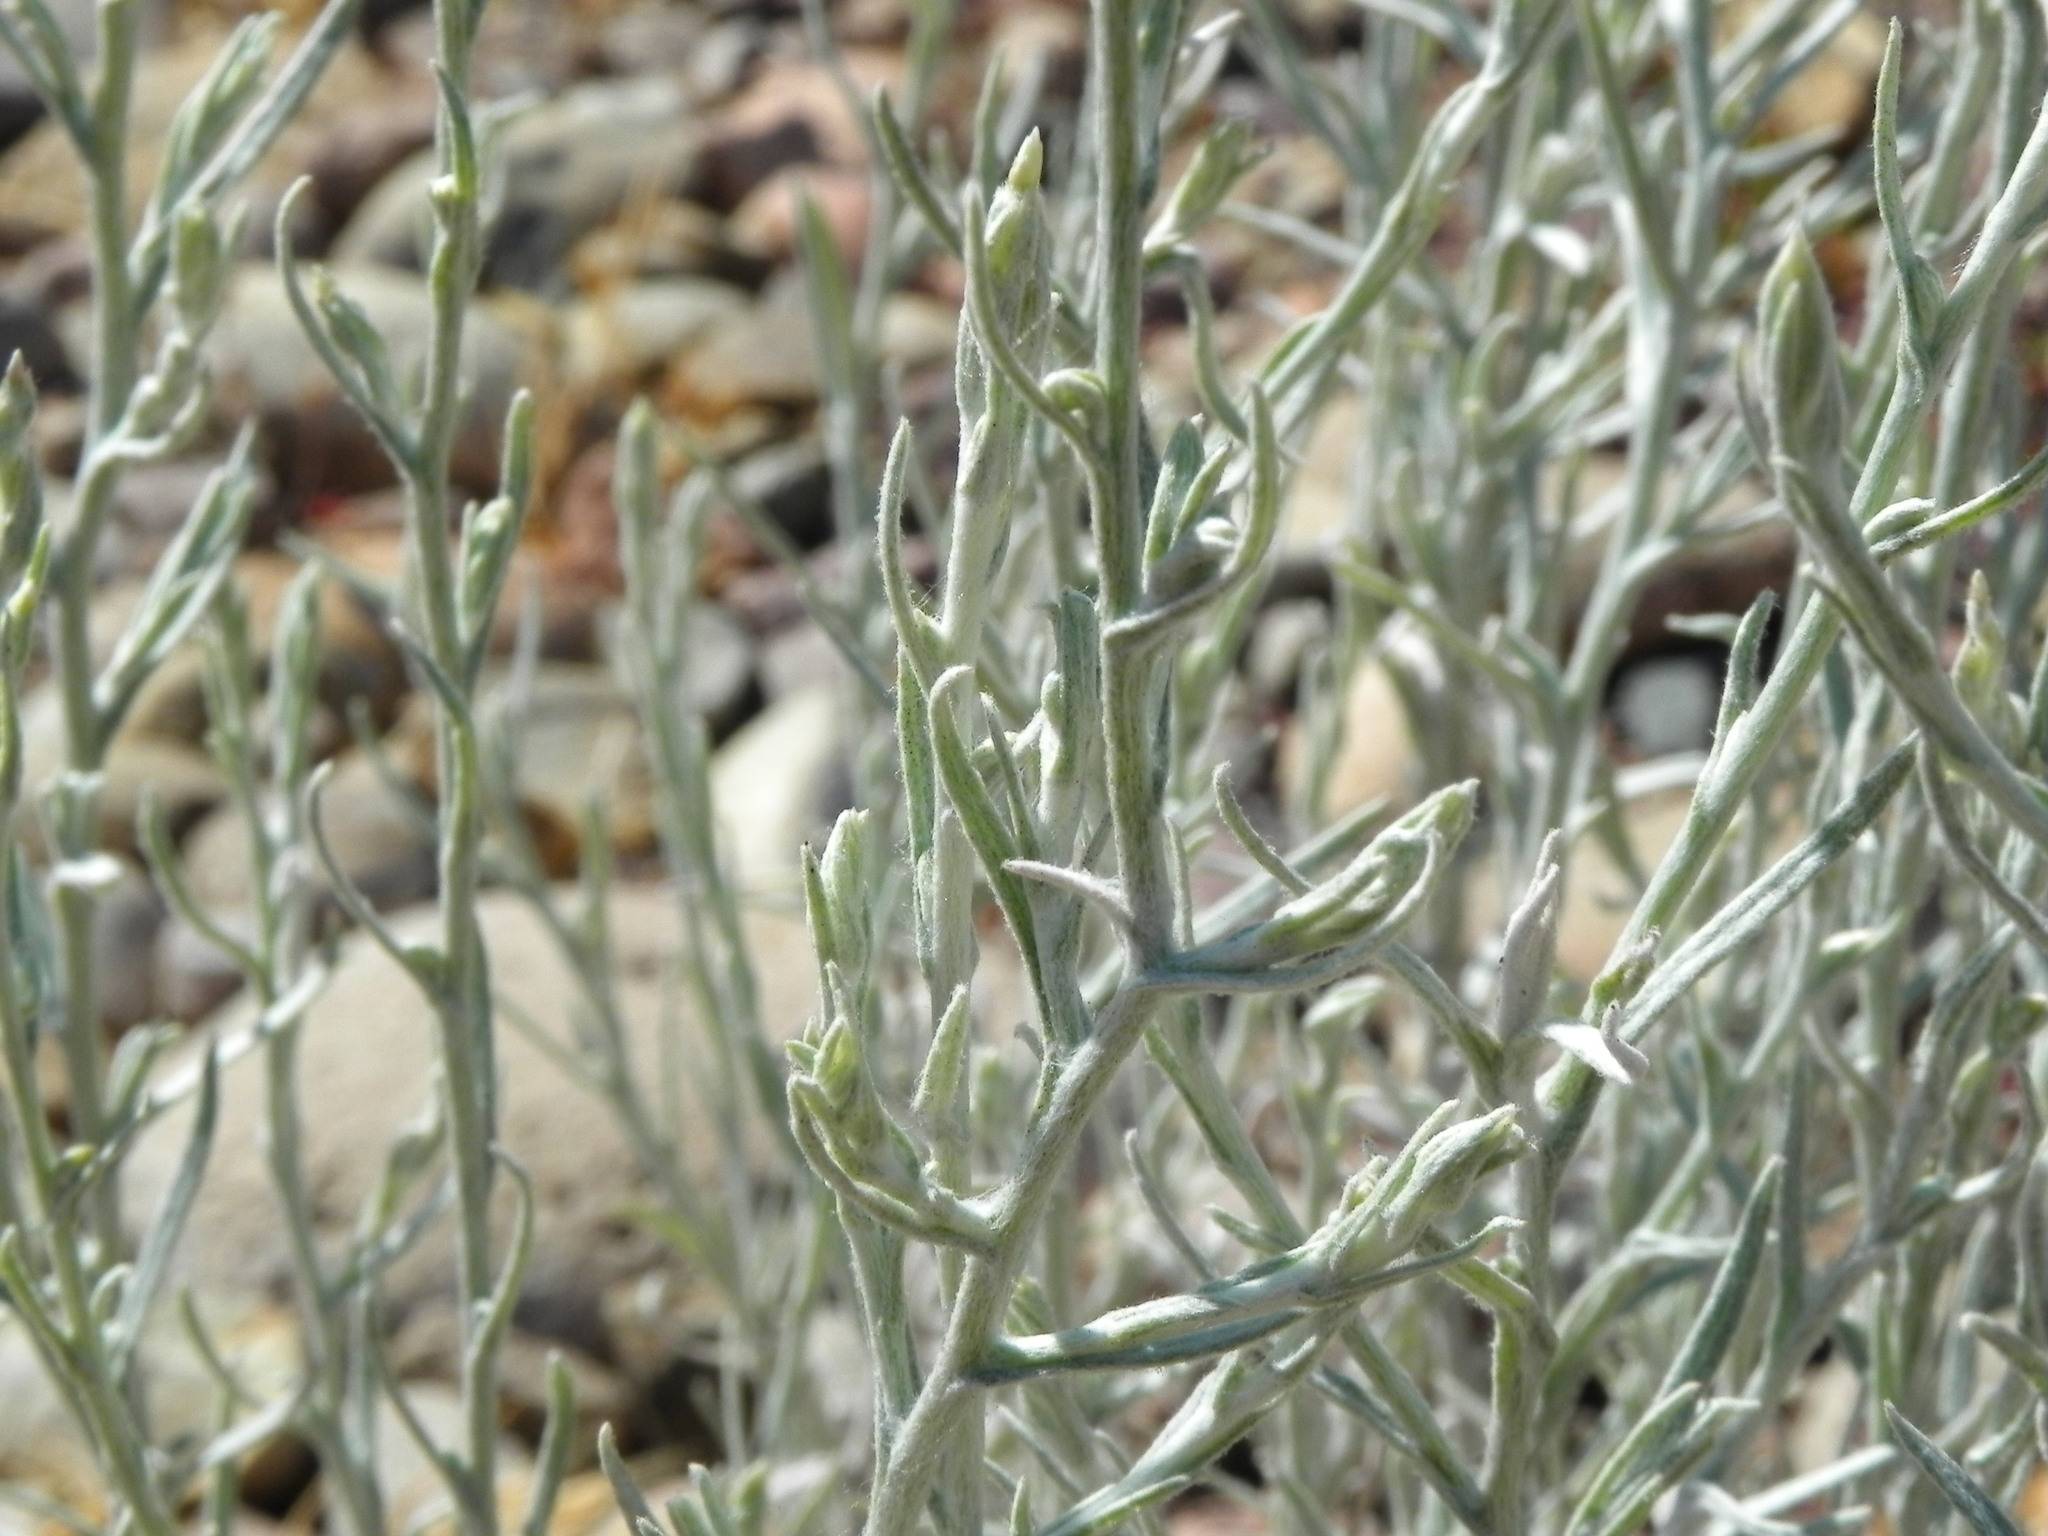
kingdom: Plantae
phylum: Tracheophyta
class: Magnoliopsida
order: Asterales
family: Asteraceae
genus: Pseudognaphalium
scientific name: Pseudognaphalium beneolens
